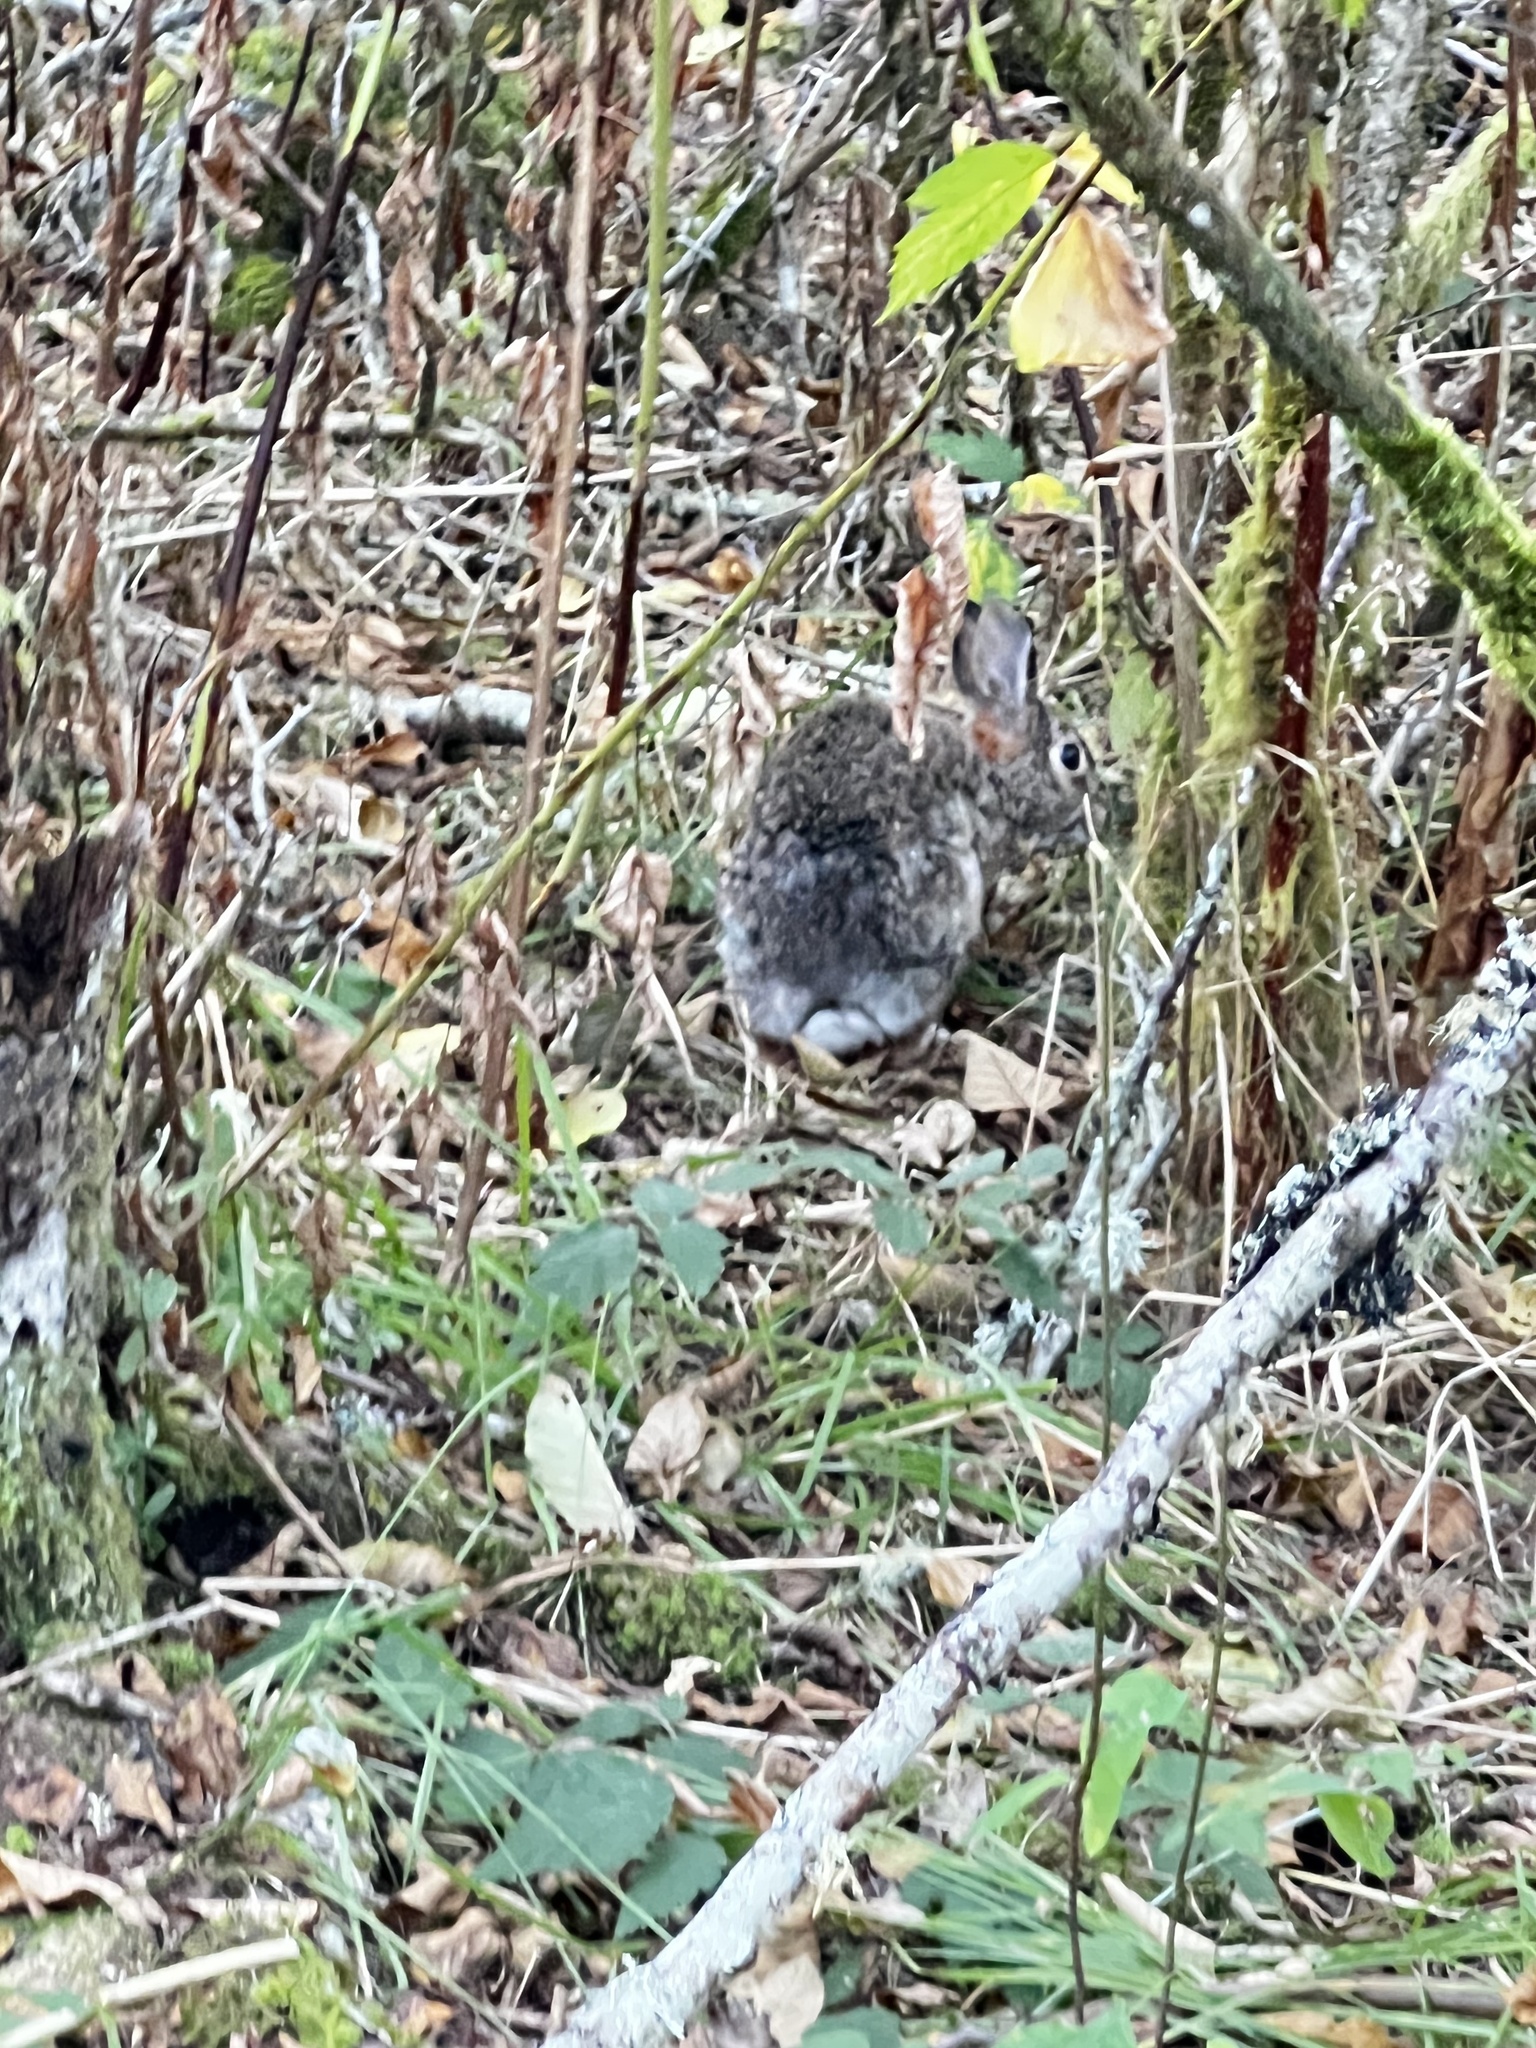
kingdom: Animalia
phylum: Chordata
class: Mammalia
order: Lagomorpha
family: Leporidae
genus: Sylvilagus
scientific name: Sylvilagus floridanus
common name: Eastern cottontail
